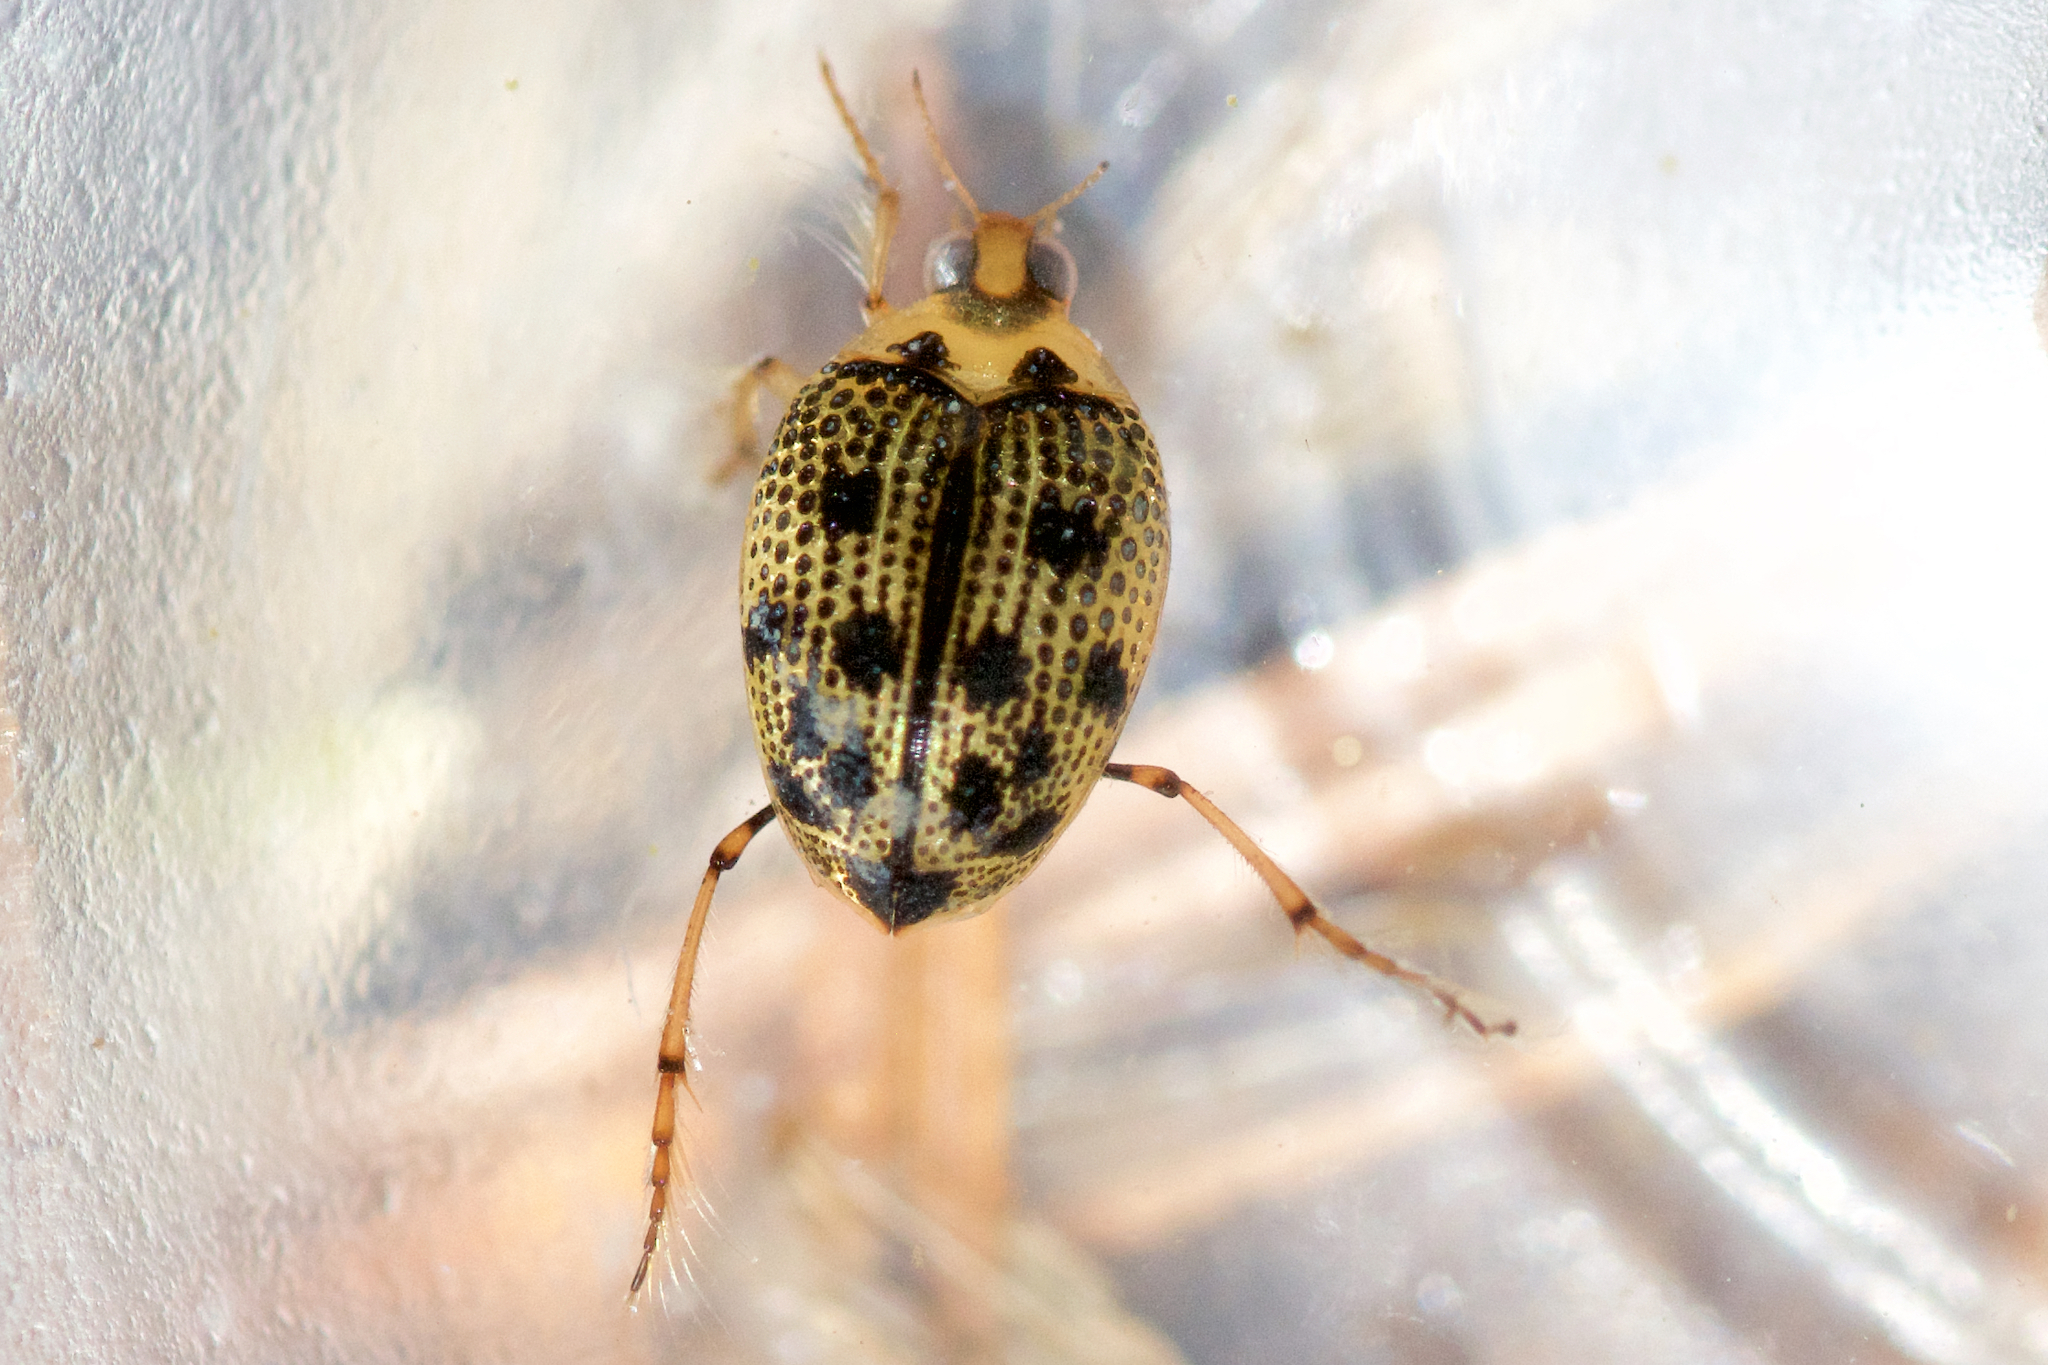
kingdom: Animalia
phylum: Arthropoda
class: Insecta
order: Coleoptera
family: Haliplidae
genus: Peltodytes
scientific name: Peltodytes edentulus
